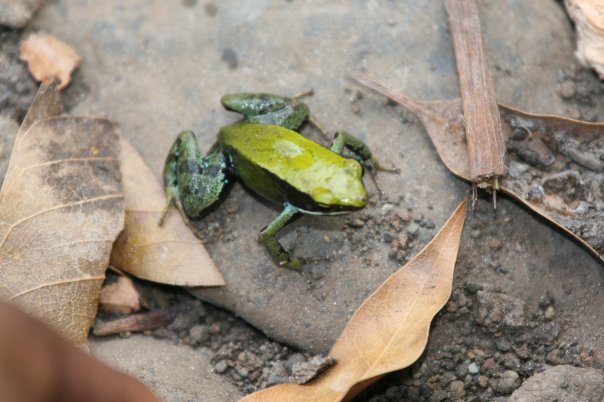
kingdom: Animalia
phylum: Chordata
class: Amphibia
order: Anura
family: Mantellidae
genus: Mantella
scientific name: Mantella viridis
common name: Green golden frog
